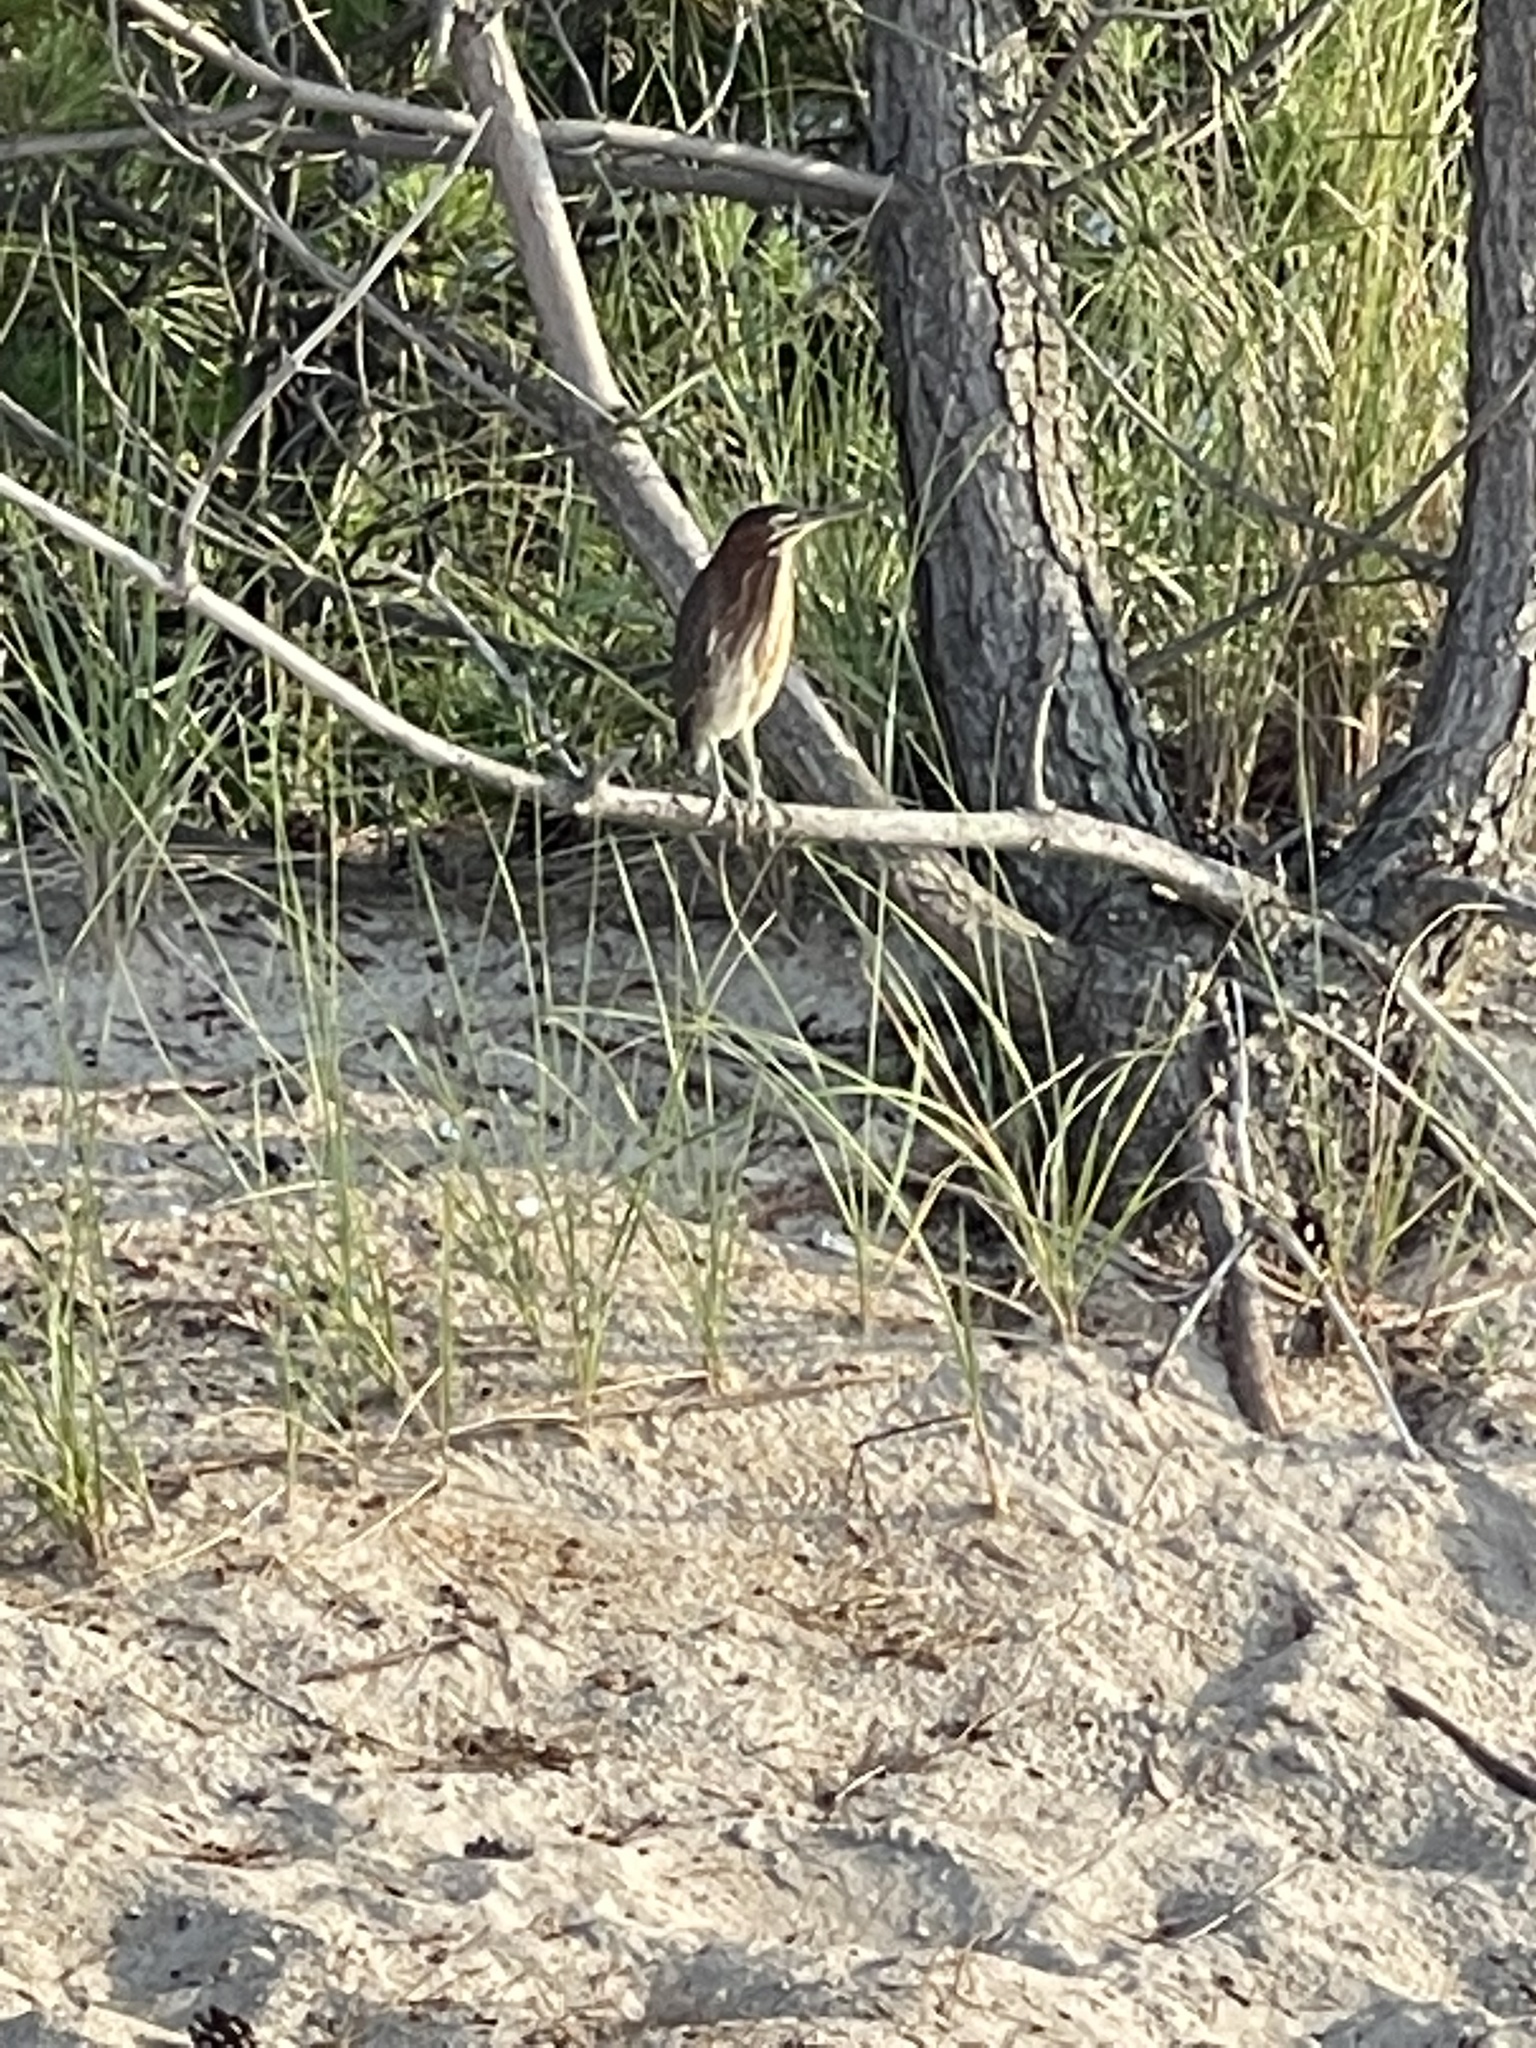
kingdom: Animalia
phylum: Chordata
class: Aves
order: Pelecaniformes
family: Ardeidae
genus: Butorides
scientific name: Butorides virescens
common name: Green heron
